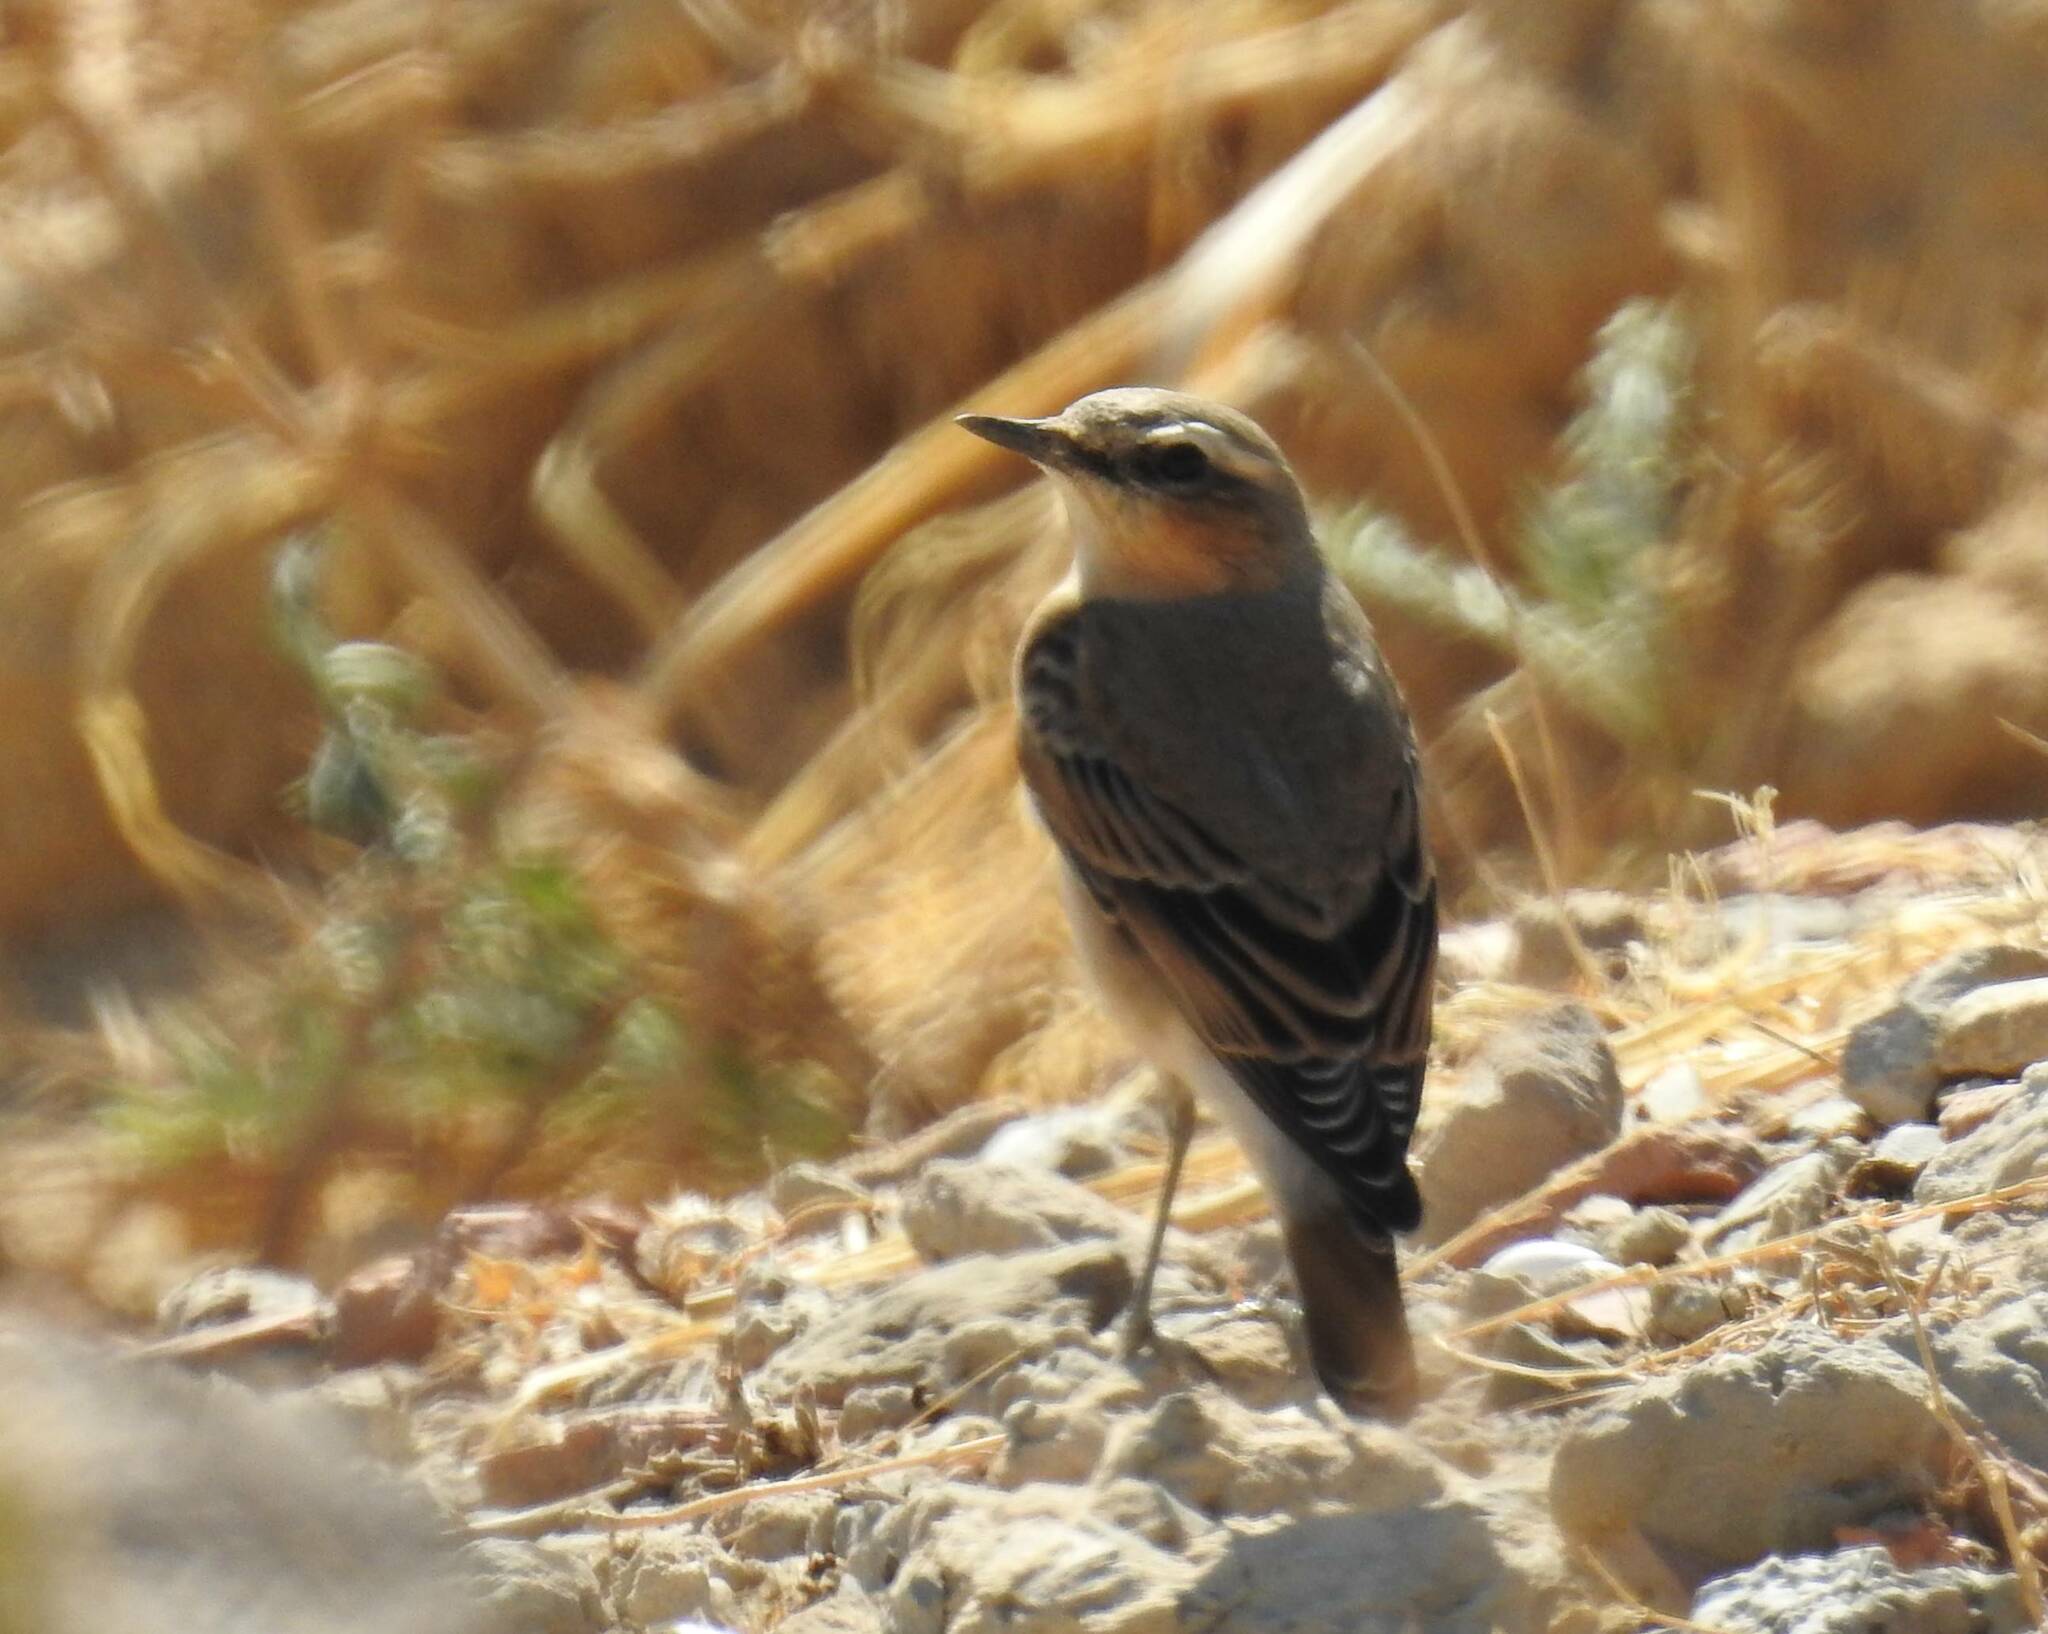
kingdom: Animalia
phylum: Chordata
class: Aves
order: Passeriformes
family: Muscicapidae
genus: Oenanthe
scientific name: Oenanthe oenanthe
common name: Northern wheatear
